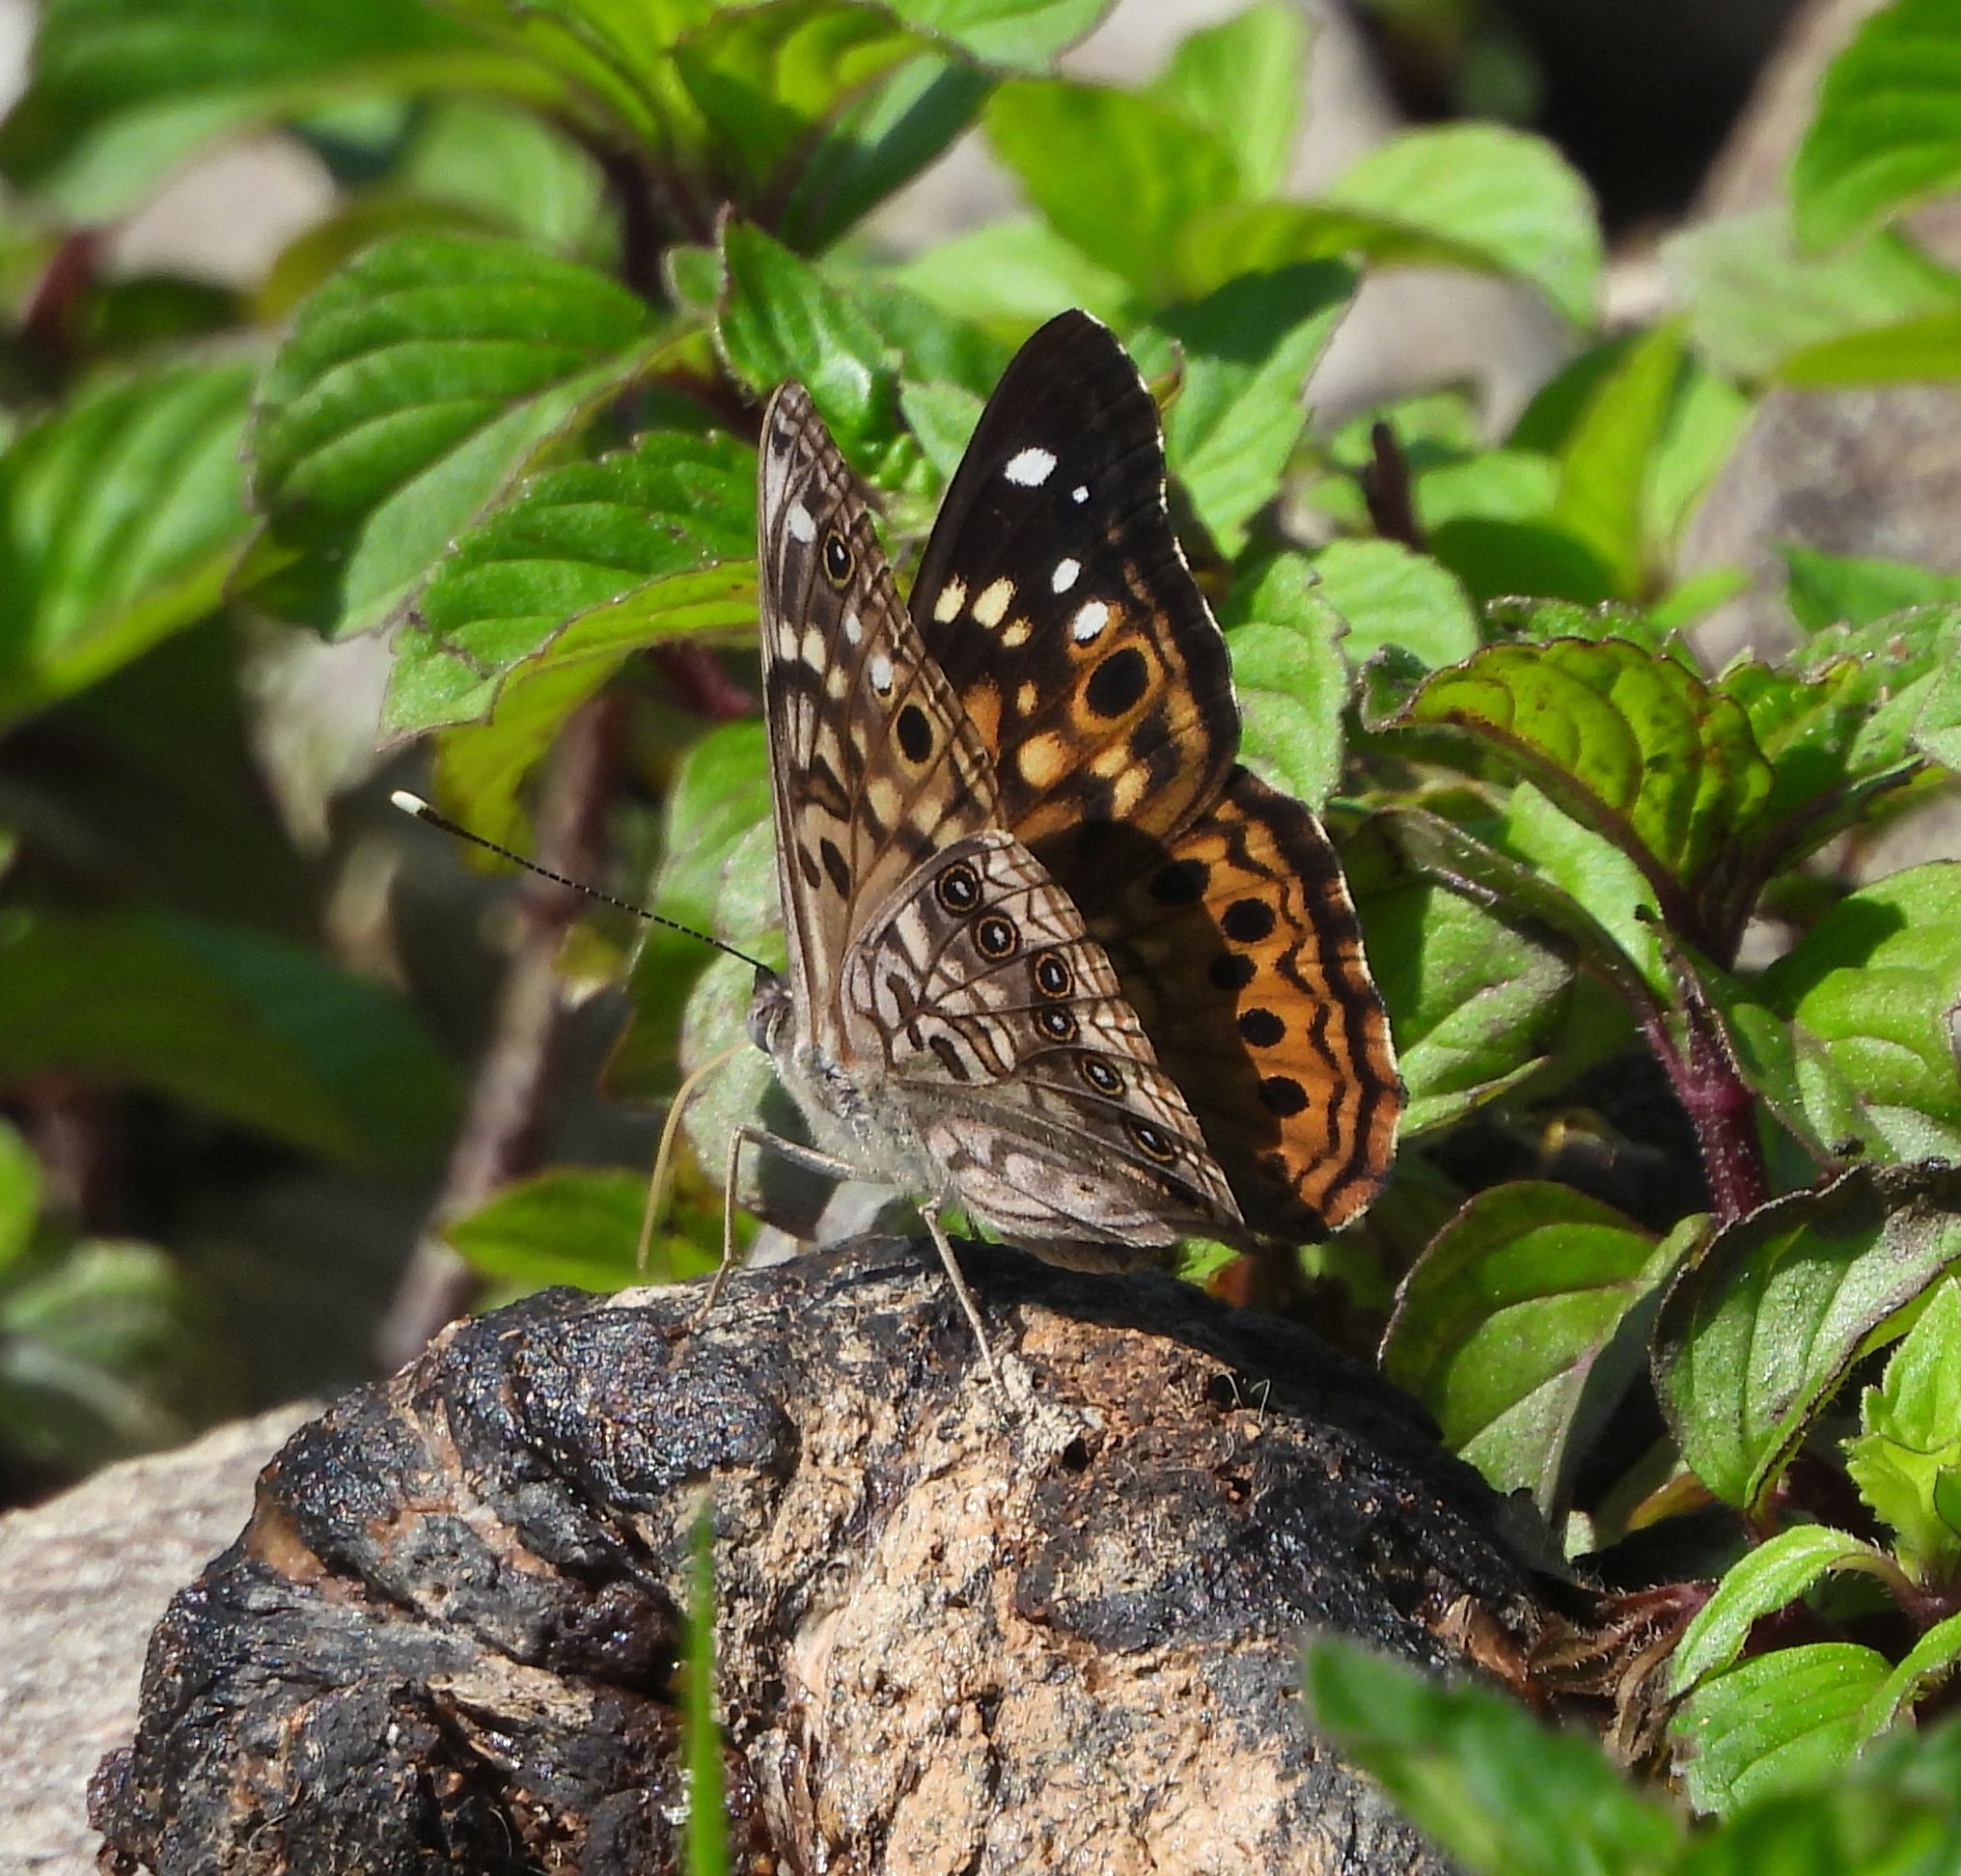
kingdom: Animalia
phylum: Arthropoda
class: Insecta
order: Lepidoptera
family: Nymphalidae
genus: Asterocampa
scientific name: Asterocampa celtis
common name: Hackberry emperor
